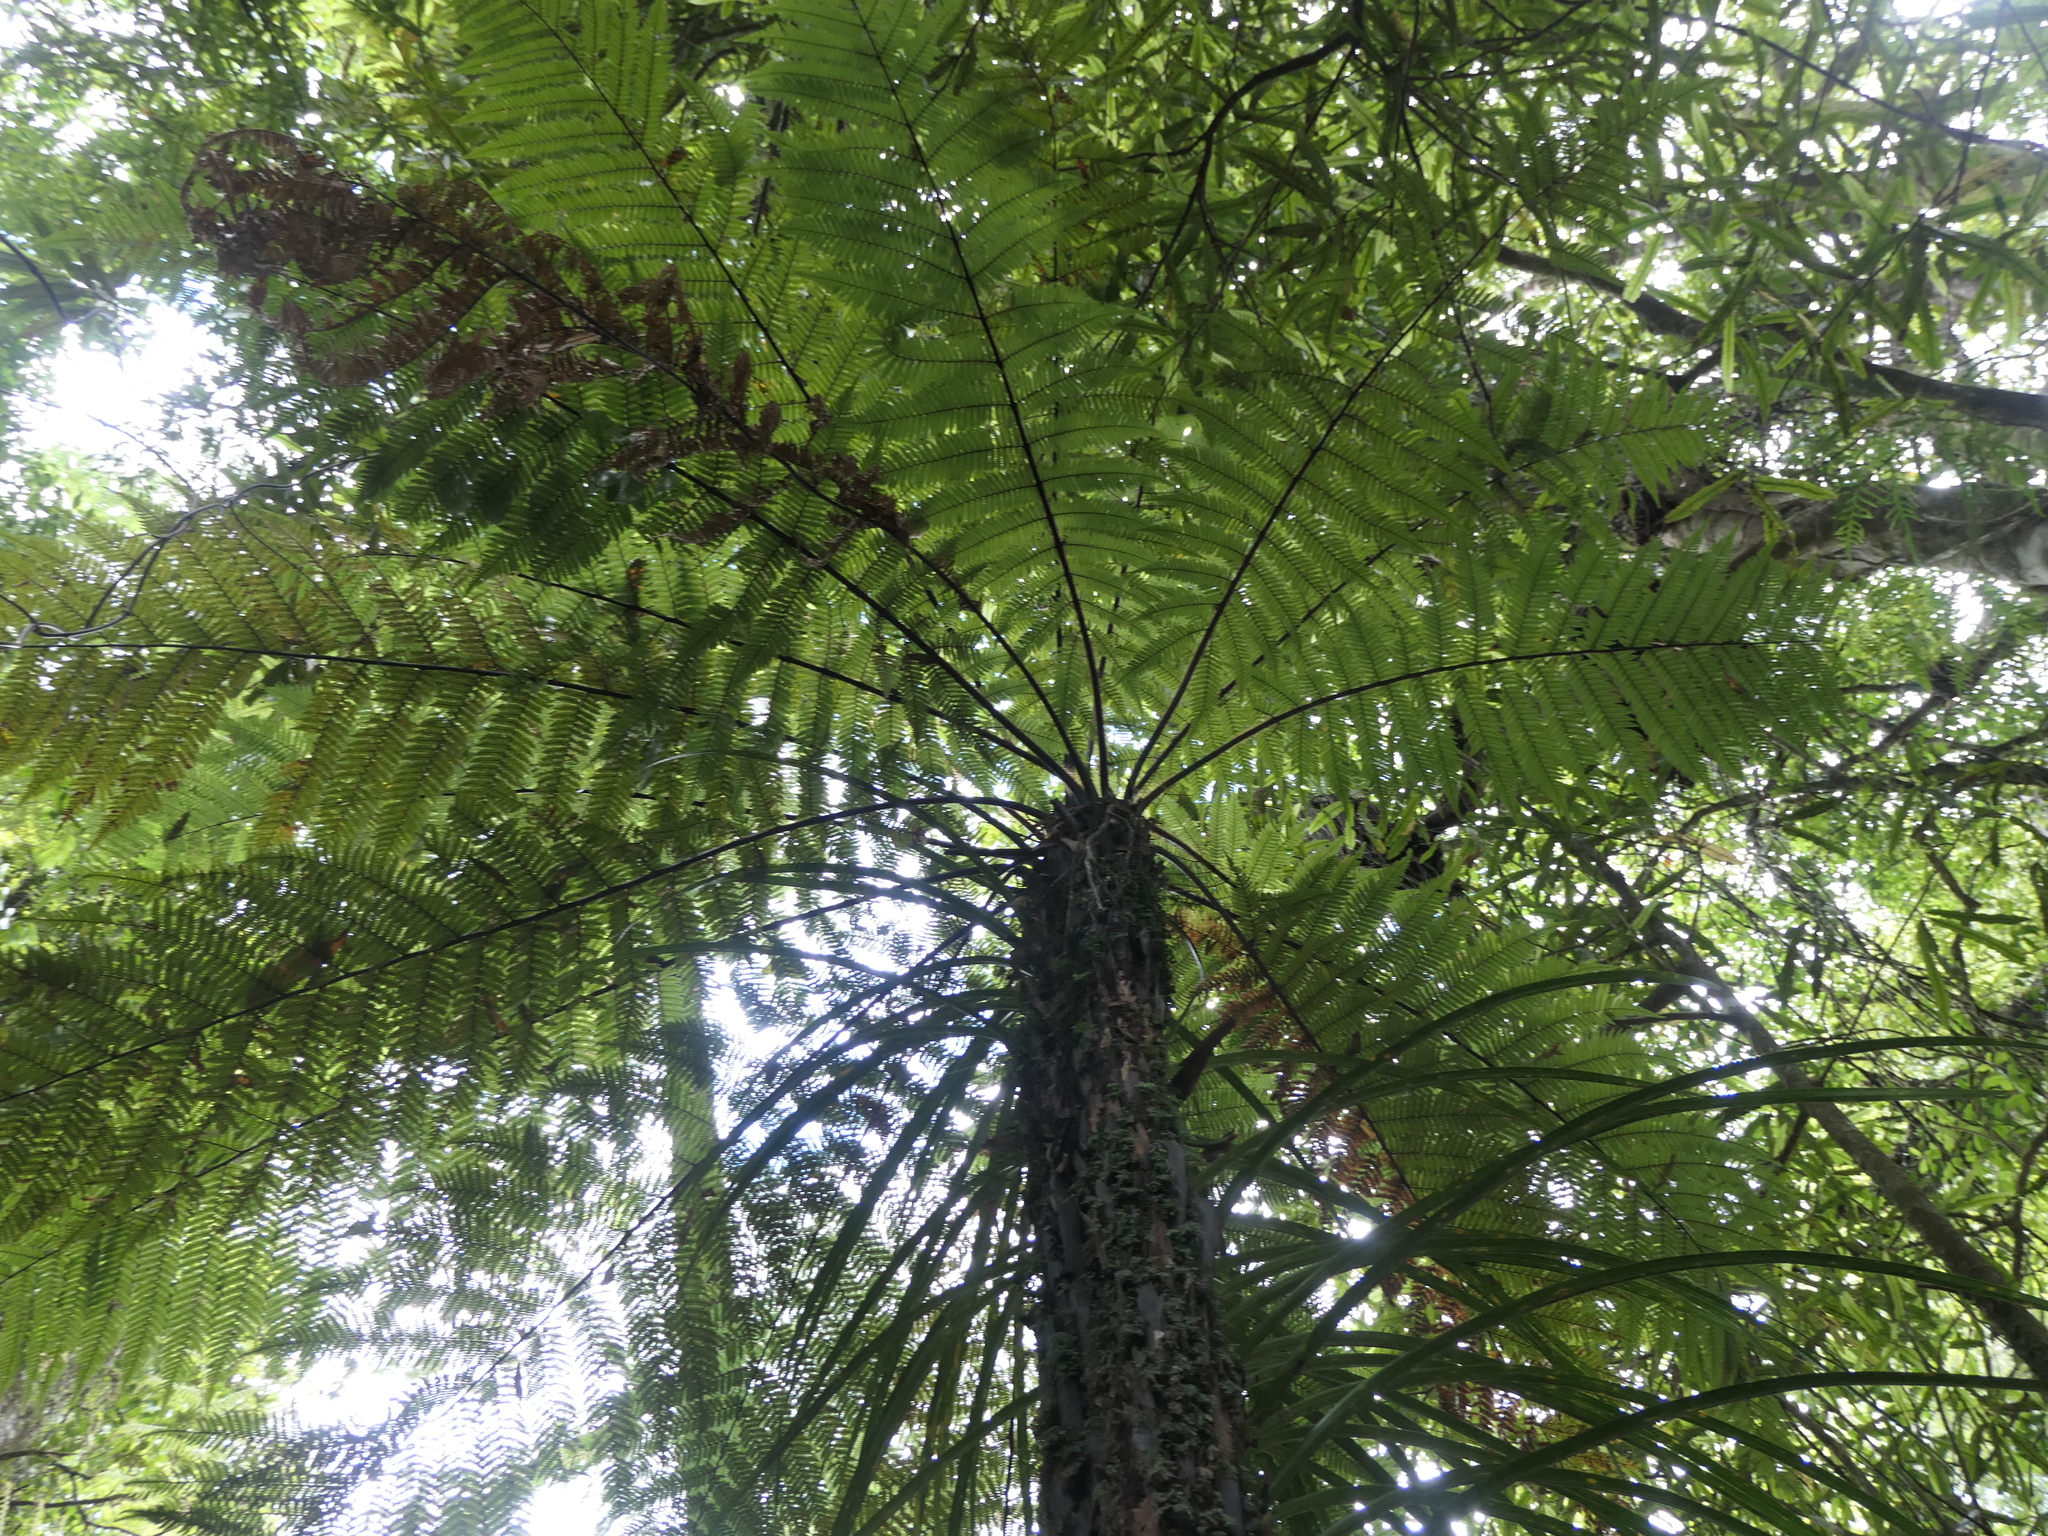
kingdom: Plantae
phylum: Tracheophyta
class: Polypodiopsida
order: Cyatheales
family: Dicksoniaceae
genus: Dicksonia
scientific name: Dicksonia squarrosa
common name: Hard treefern
